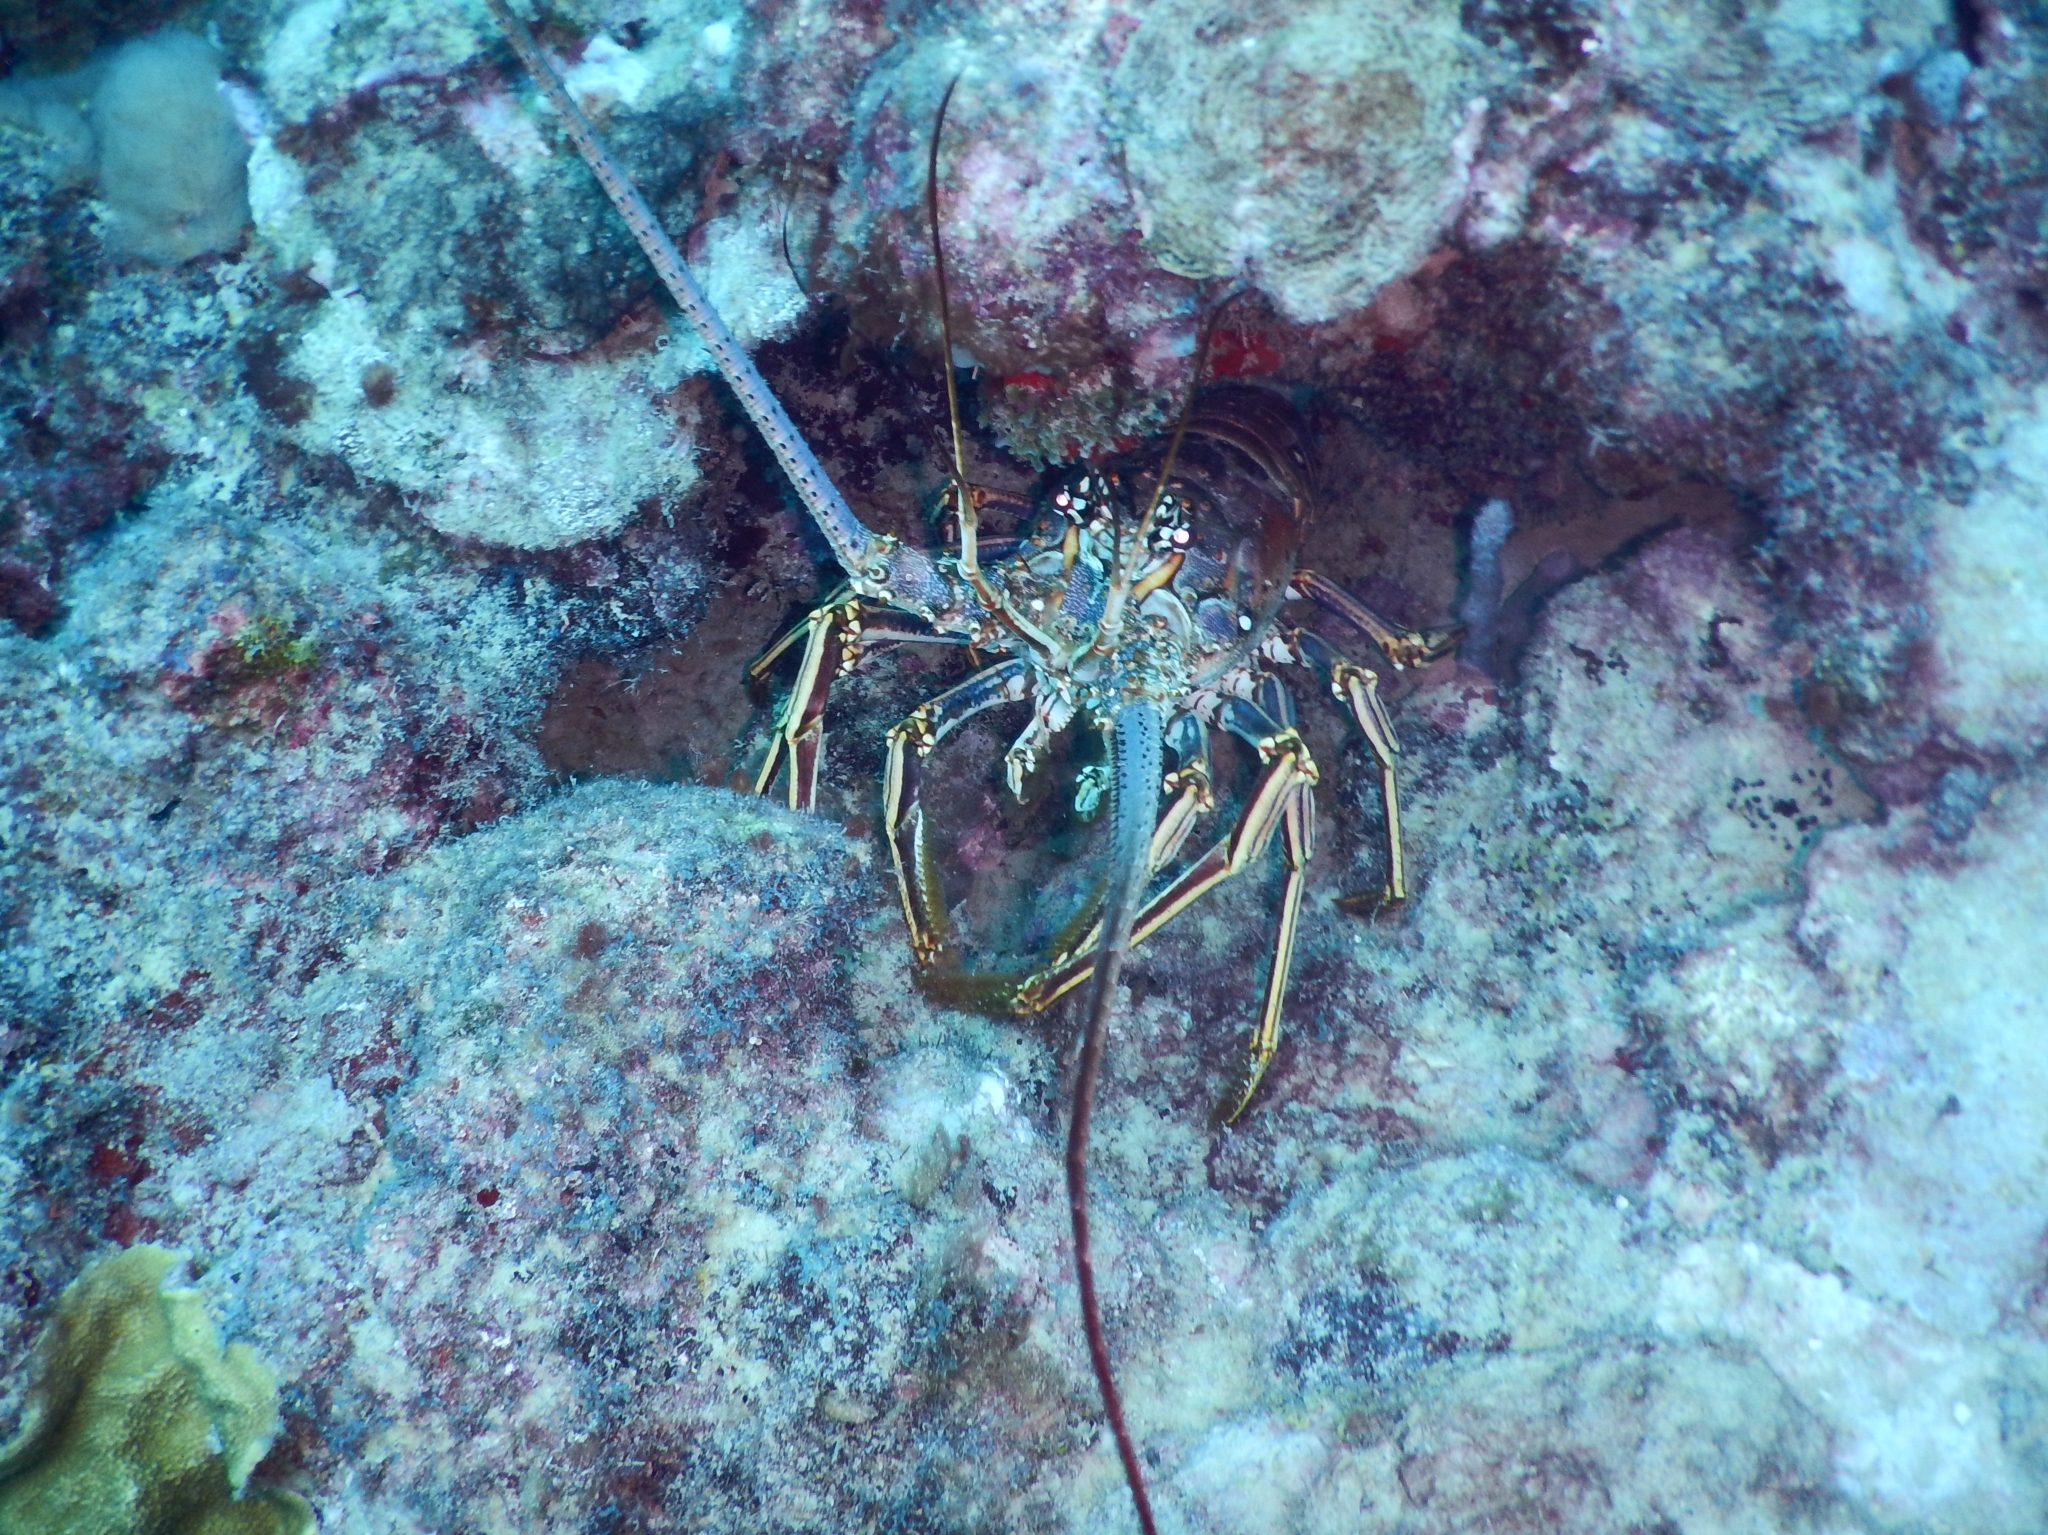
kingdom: Animalia
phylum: Arthropoda
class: Malacostraca
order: Decapoda
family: Palinuridae
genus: Panulirus
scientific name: Panulirus argus
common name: Caribbean spiny lobster
